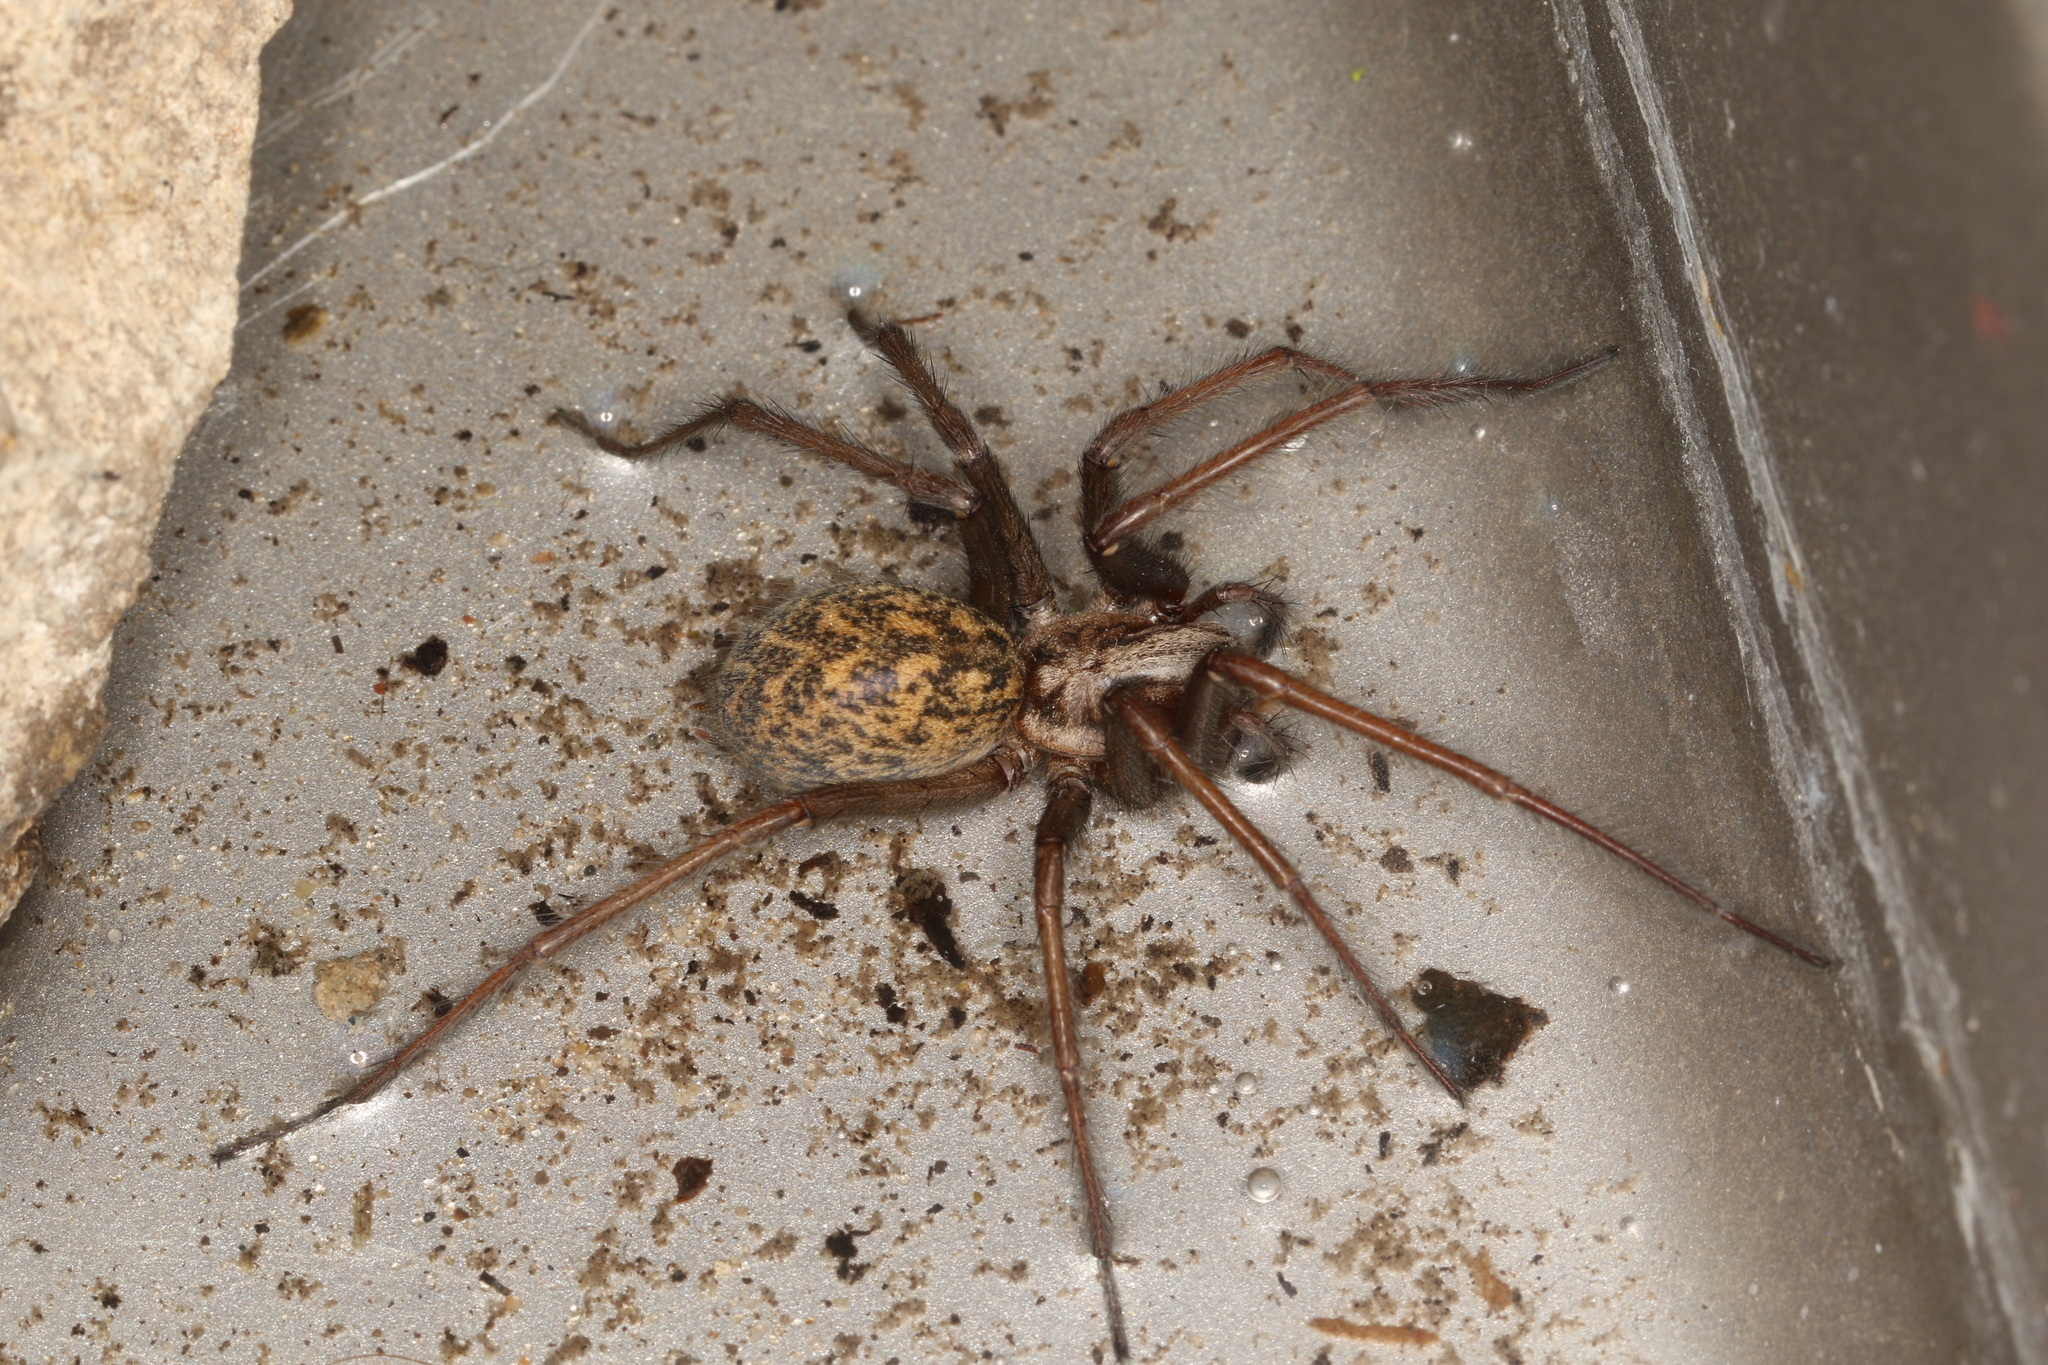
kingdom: Animalia
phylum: Arthropoda
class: Arachnida
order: Araneae
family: Agelenidae
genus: Eratigena
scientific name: Eratigena atrica
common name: Giant house spider
